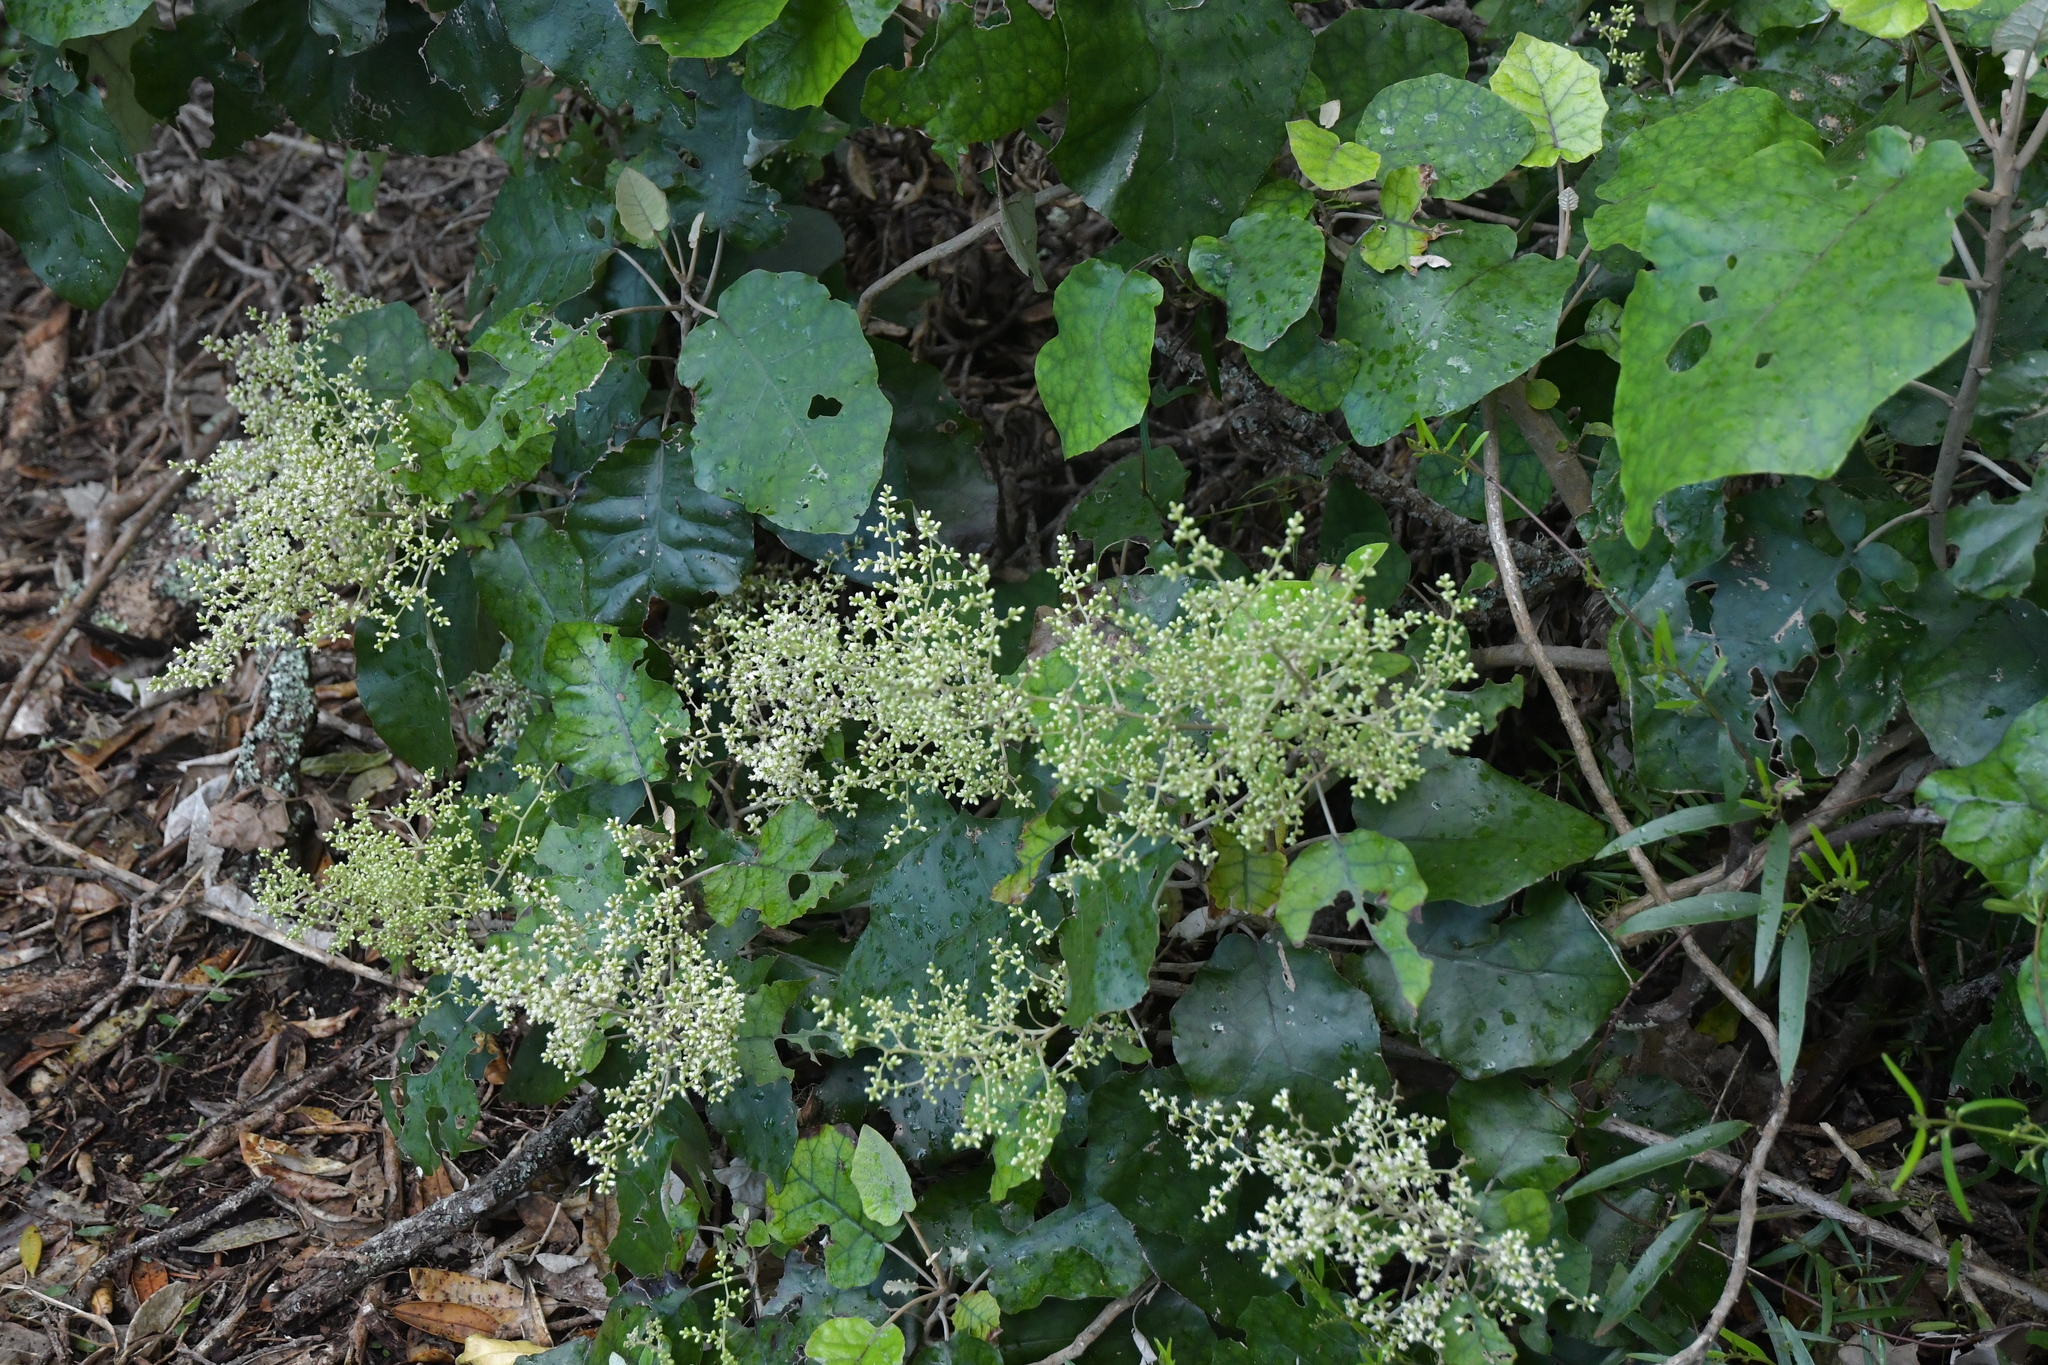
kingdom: Plantae
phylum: Tracheophyta
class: Magnoliopsida
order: Asterales
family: Asteraceae
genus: Brachyglottis
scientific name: Brachyglottis repanda
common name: Hedge ragwort
